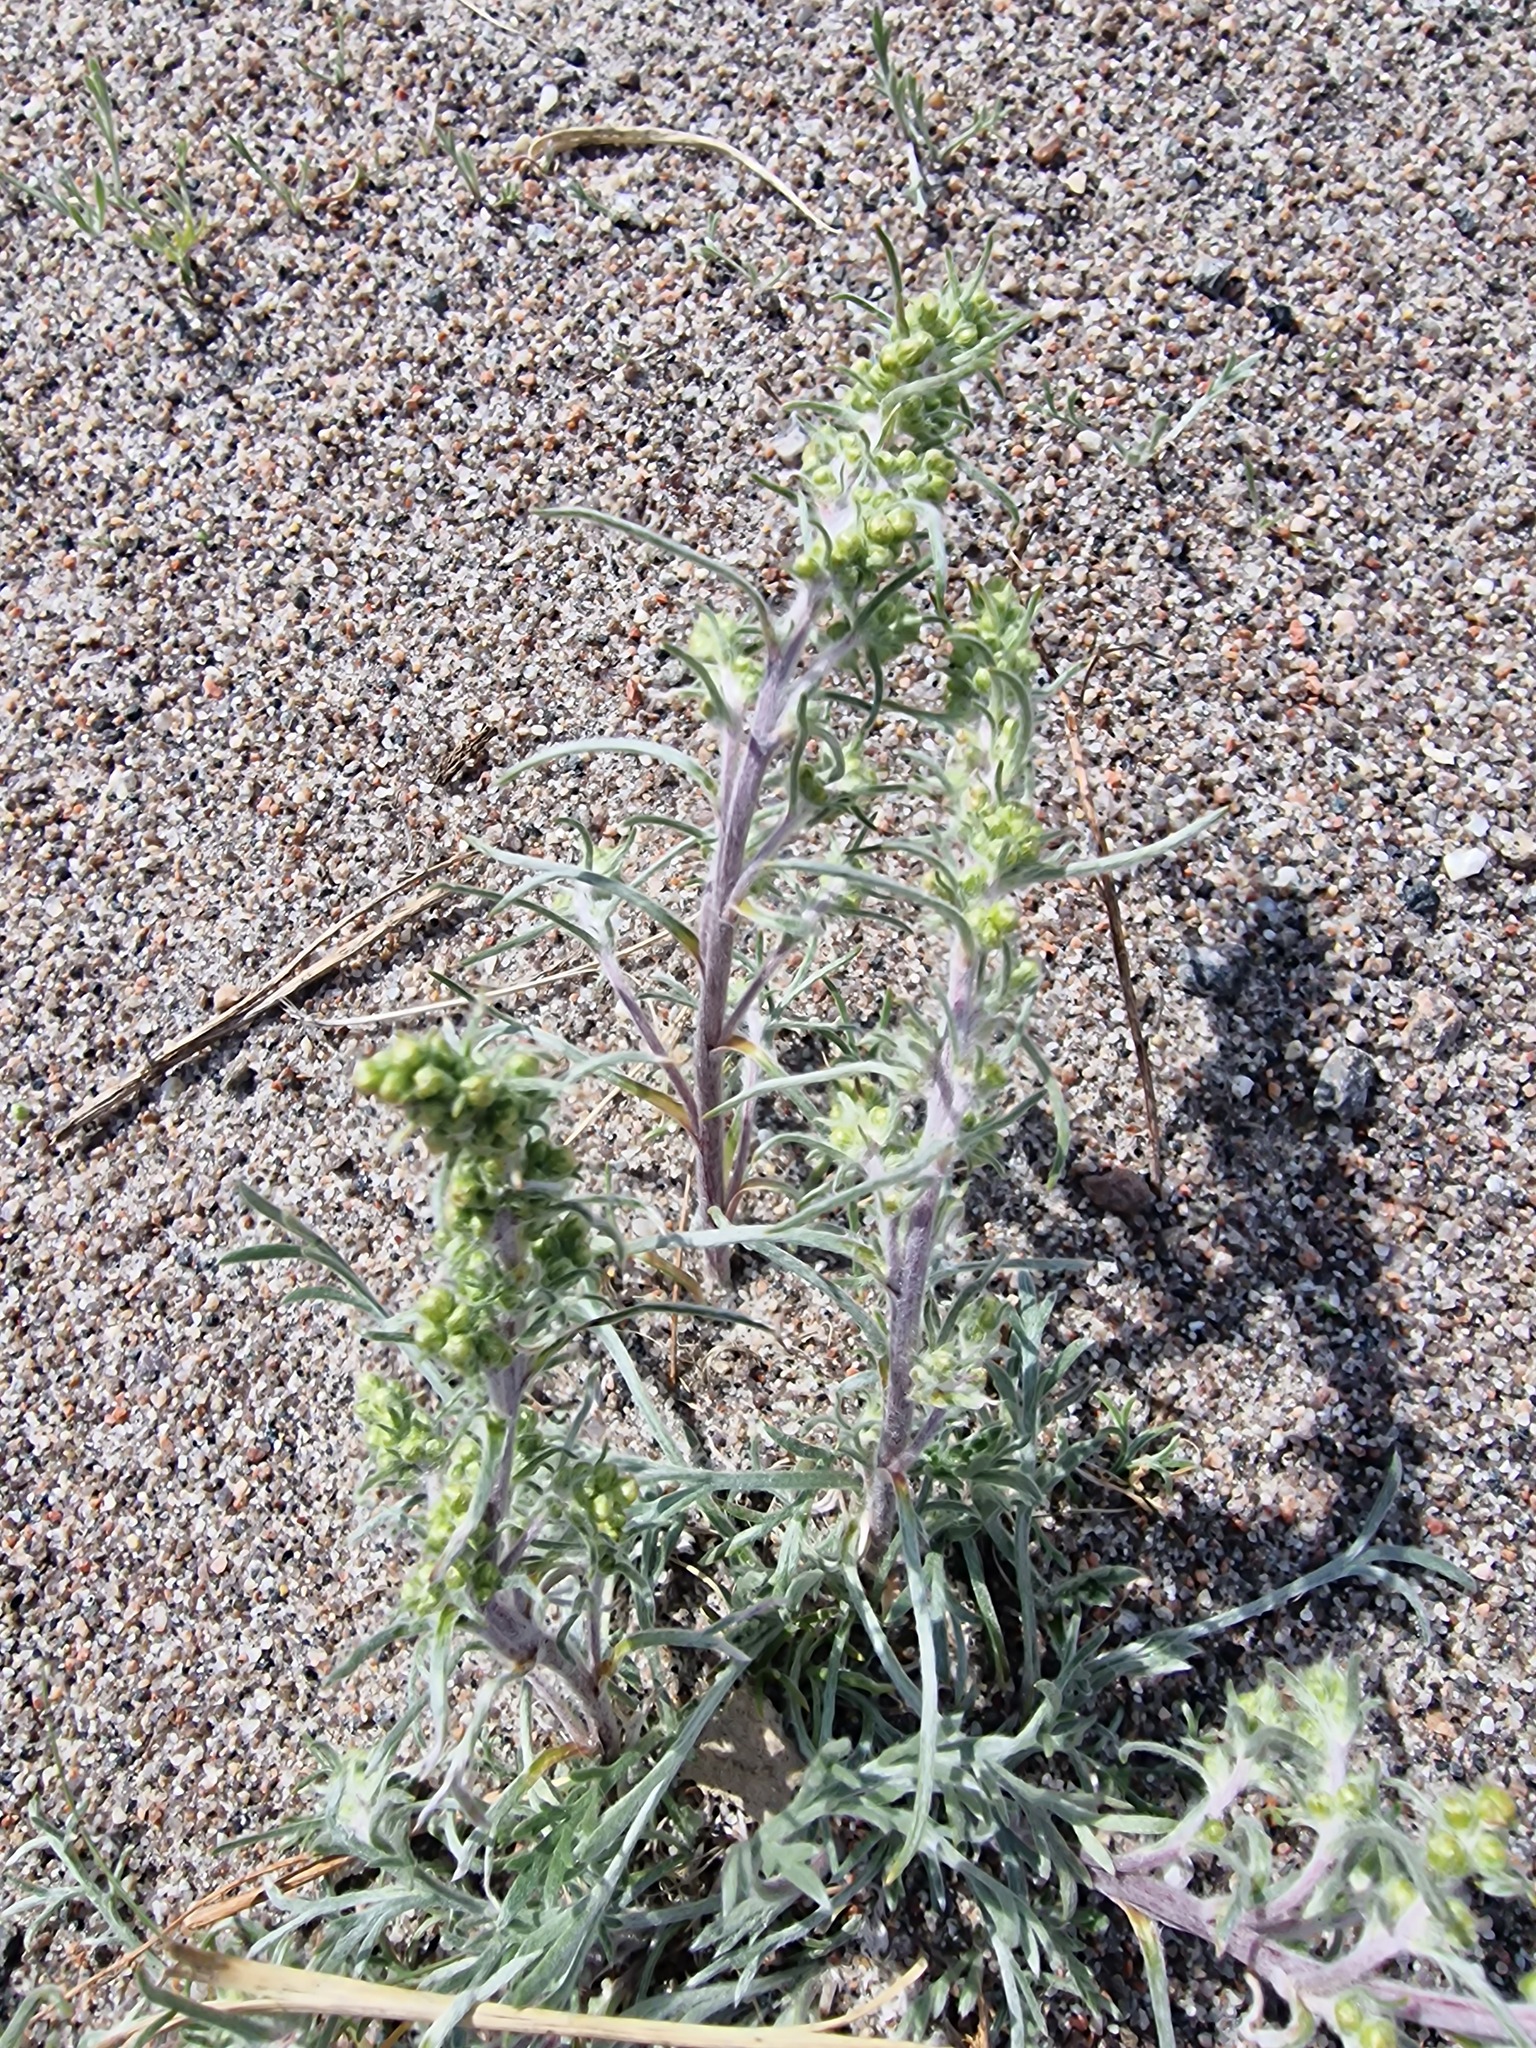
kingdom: Plantae
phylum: Tracheophyta
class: Magnoliopsida
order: Asterales
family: Asteraceae
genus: Artemisia
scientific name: Artemisia borealis
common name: Boreal sage
